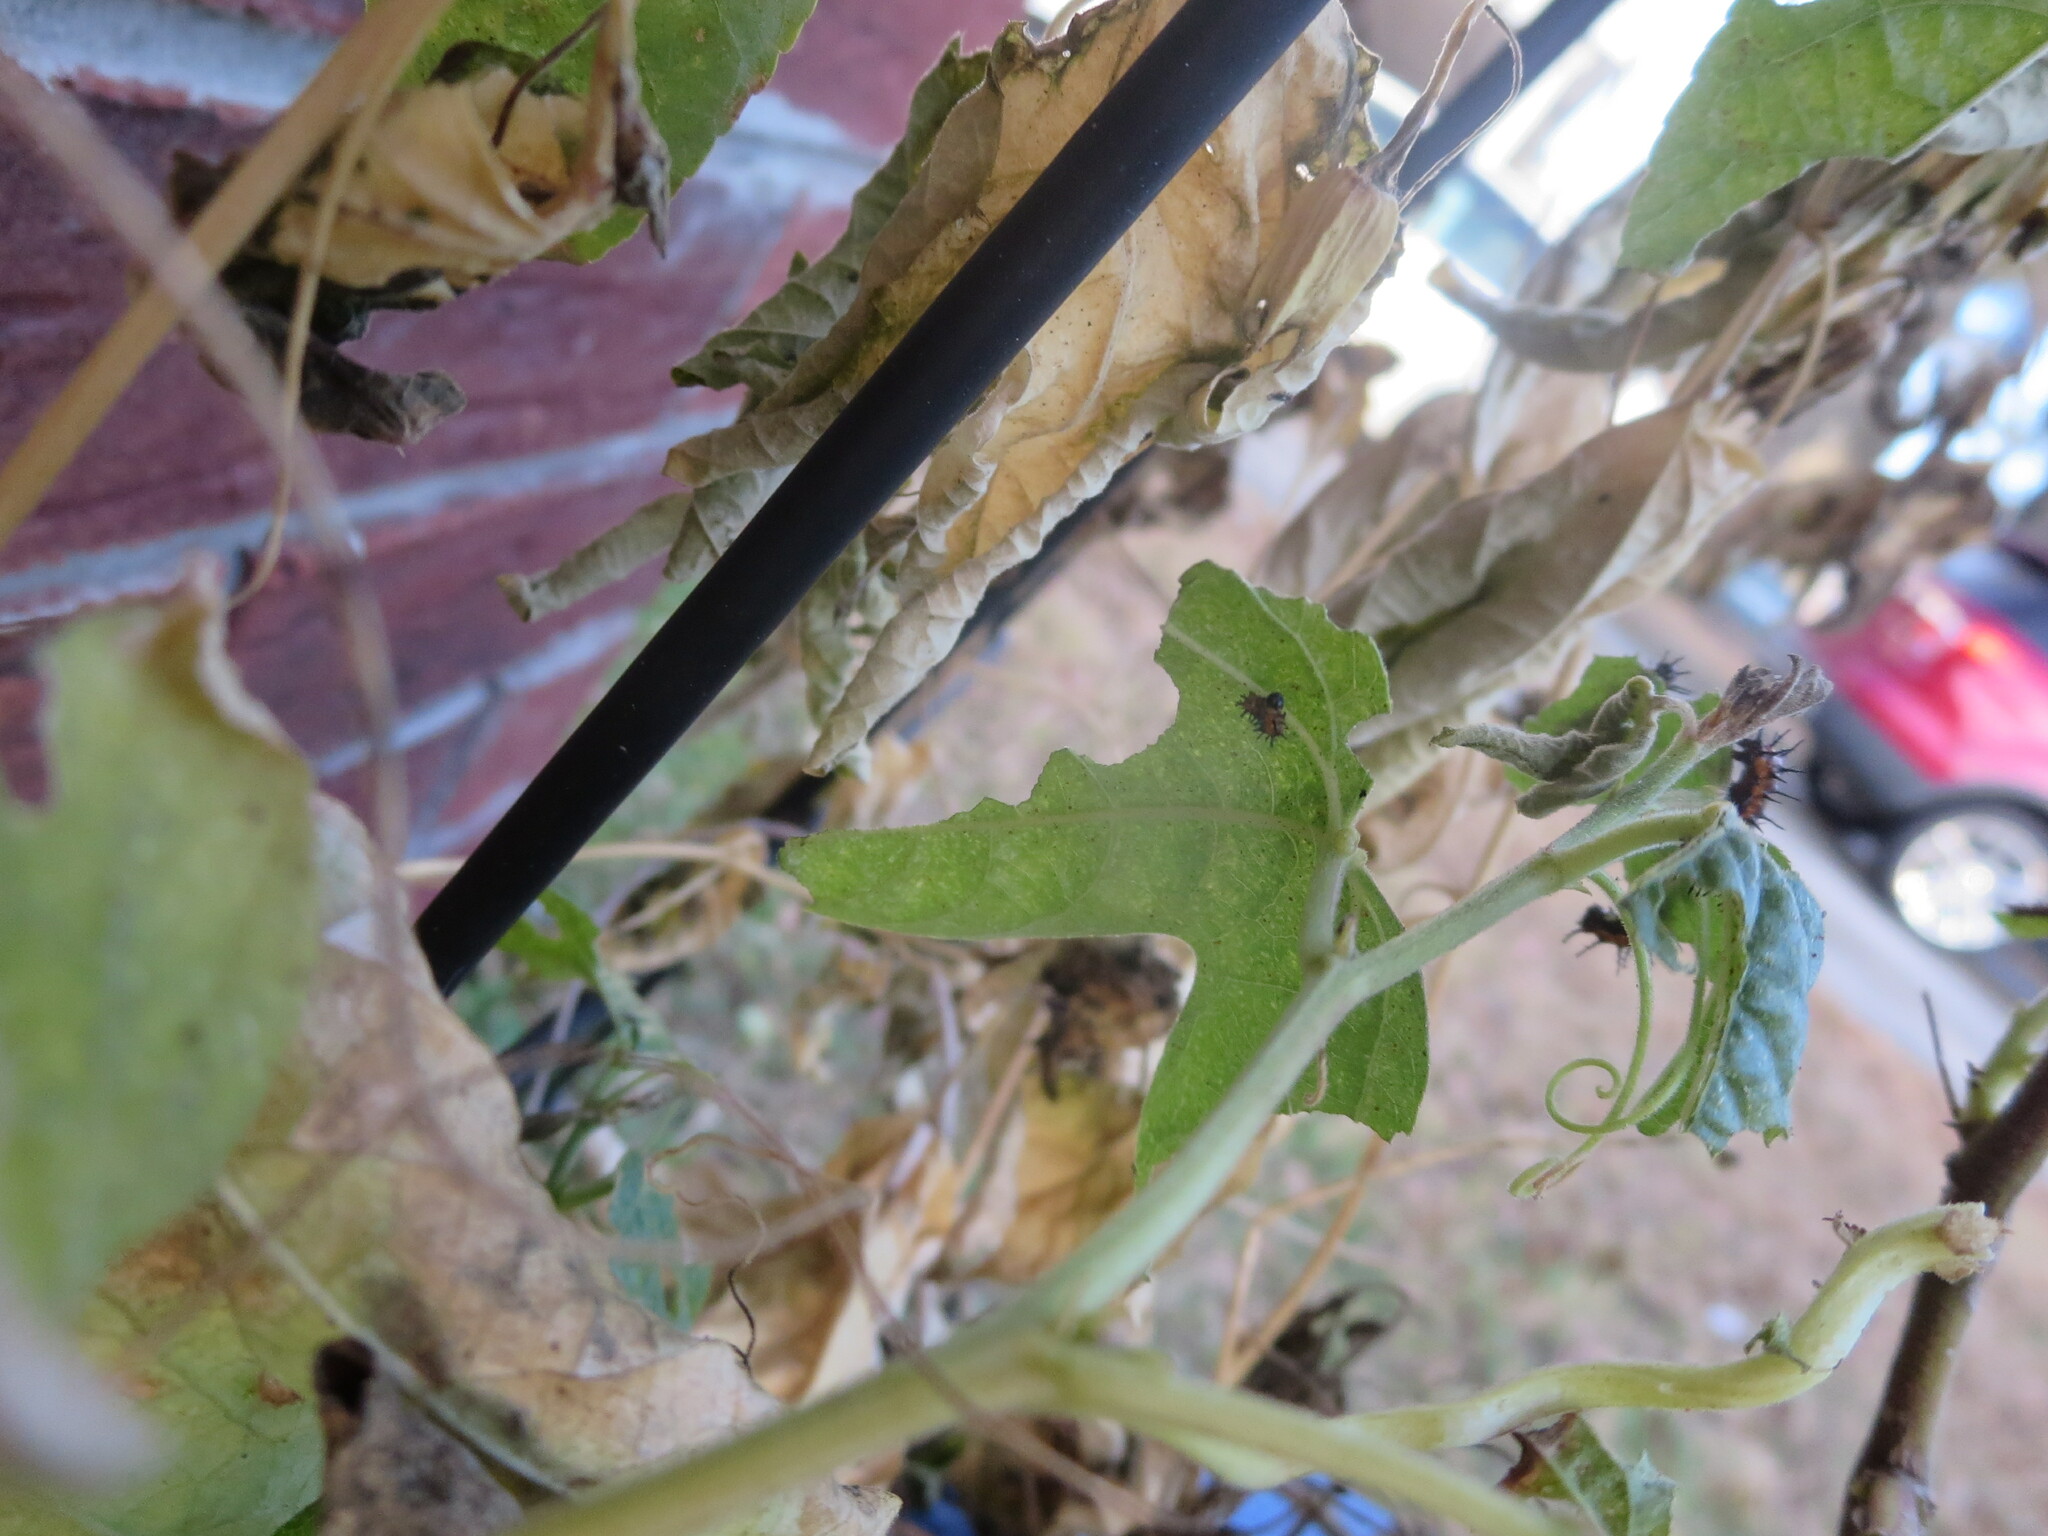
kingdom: Animalia
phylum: Arthropoda
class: Insecta
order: Lepidoptera
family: Nymphalidae
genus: Dione
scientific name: Dione vanillae
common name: Gulf fritillary
